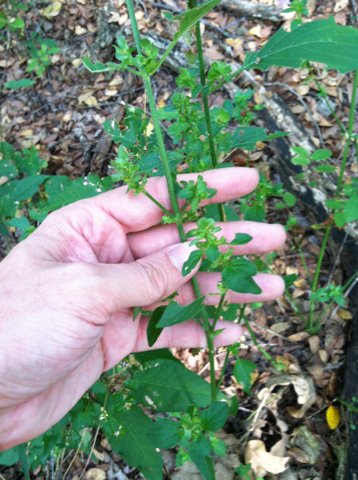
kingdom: Plantae
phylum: Tracheophyta
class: Magnoliopsida
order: Lamiales
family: Acanthaceae
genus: Dicliptera
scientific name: Dicliptera brachiata
